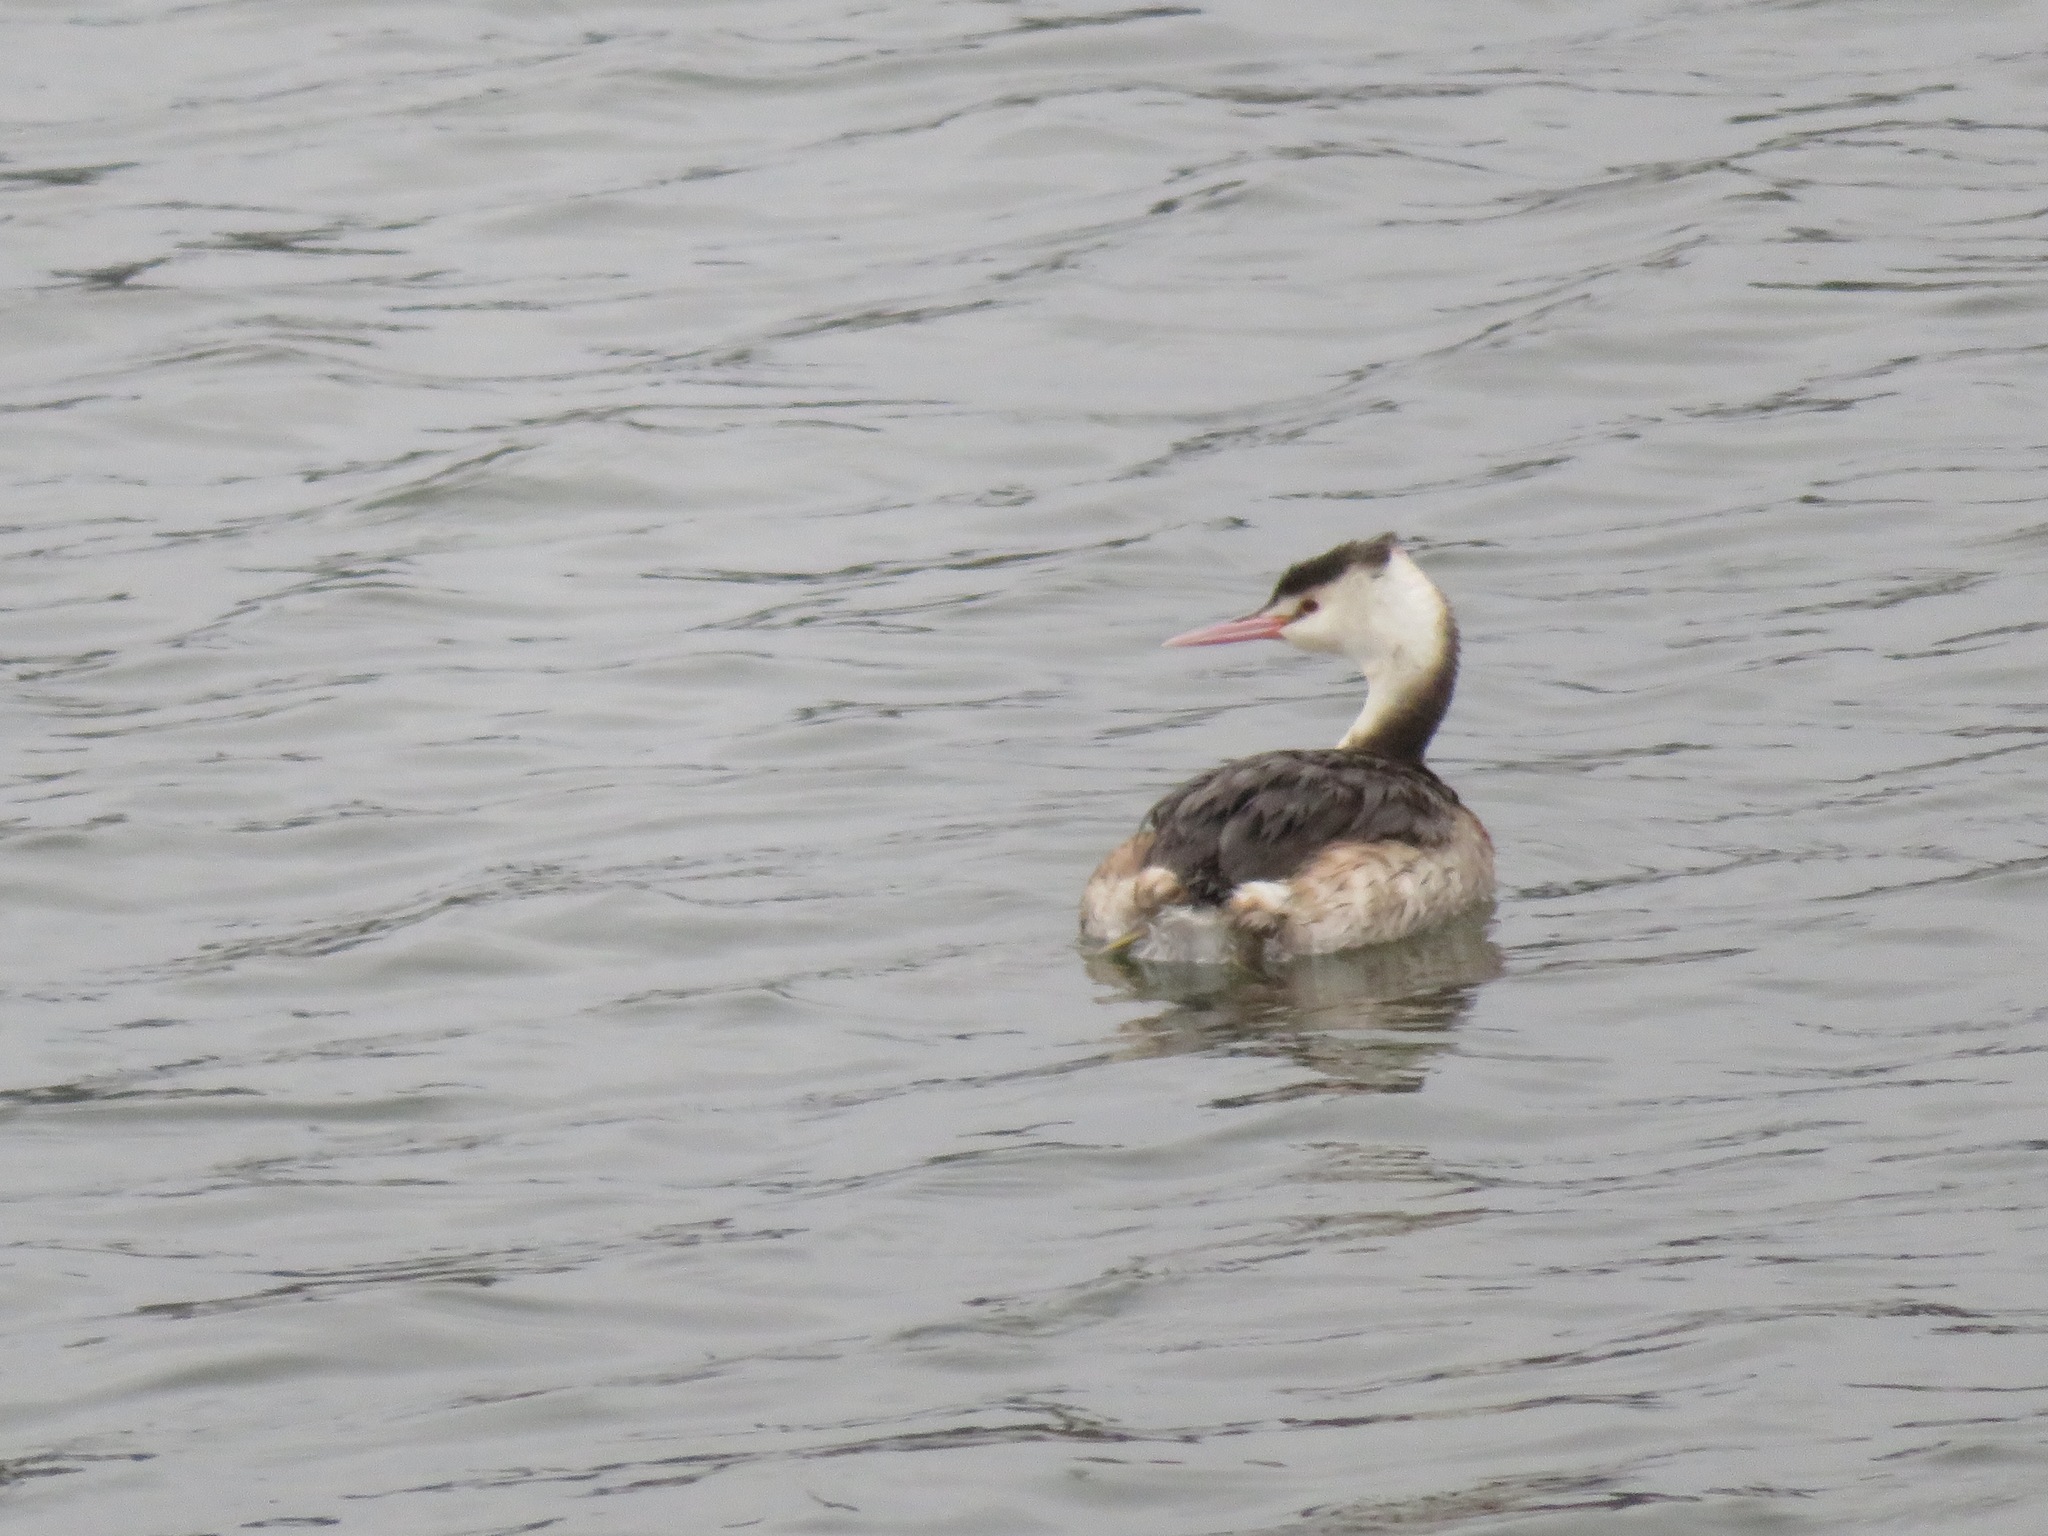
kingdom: Animalia
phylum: Chordata
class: Aves
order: Podicipediformes
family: Podicipedidae
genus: Podiceps
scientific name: Podiceps cristatus
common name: Great crested grebe
